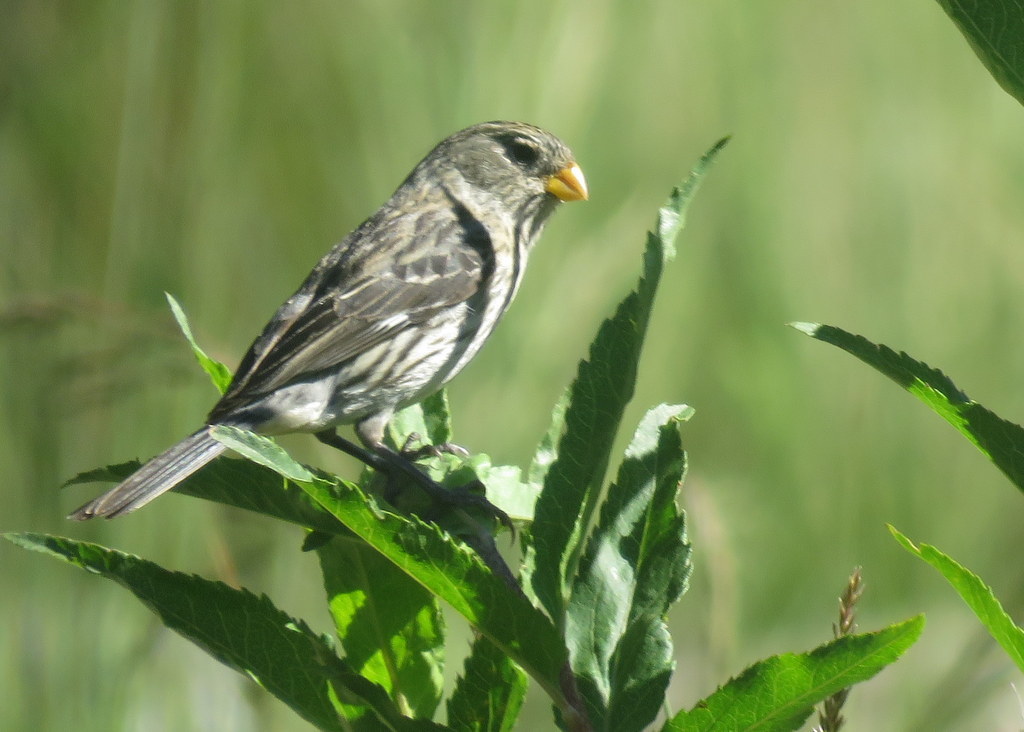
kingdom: Animalia
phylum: Chordata
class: Aves
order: Passeriformes
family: Thraupidae
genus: Catamenia
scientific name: Catamenia analis
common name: Band-tailed seedeater
